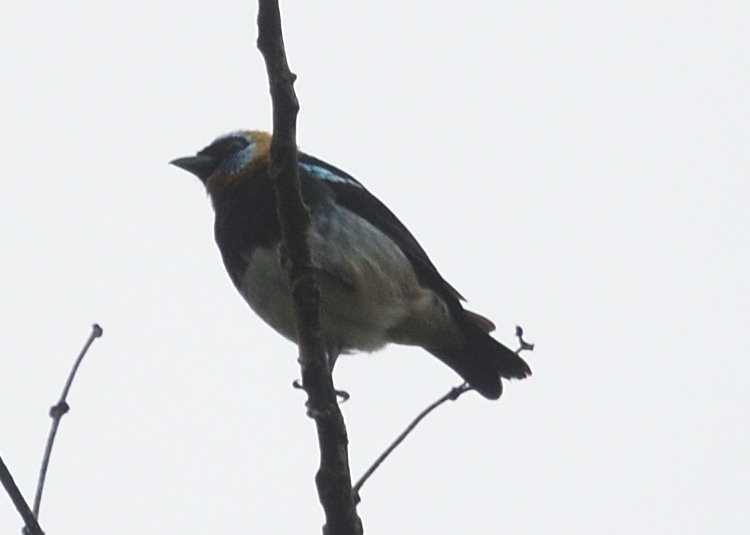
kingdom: Animalia
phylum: Chordata
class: Aves
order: Passeriformes
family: Thraupidae
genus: Stilpnia
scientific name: Stilpnia larvata
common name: Golden-hooded tanager
